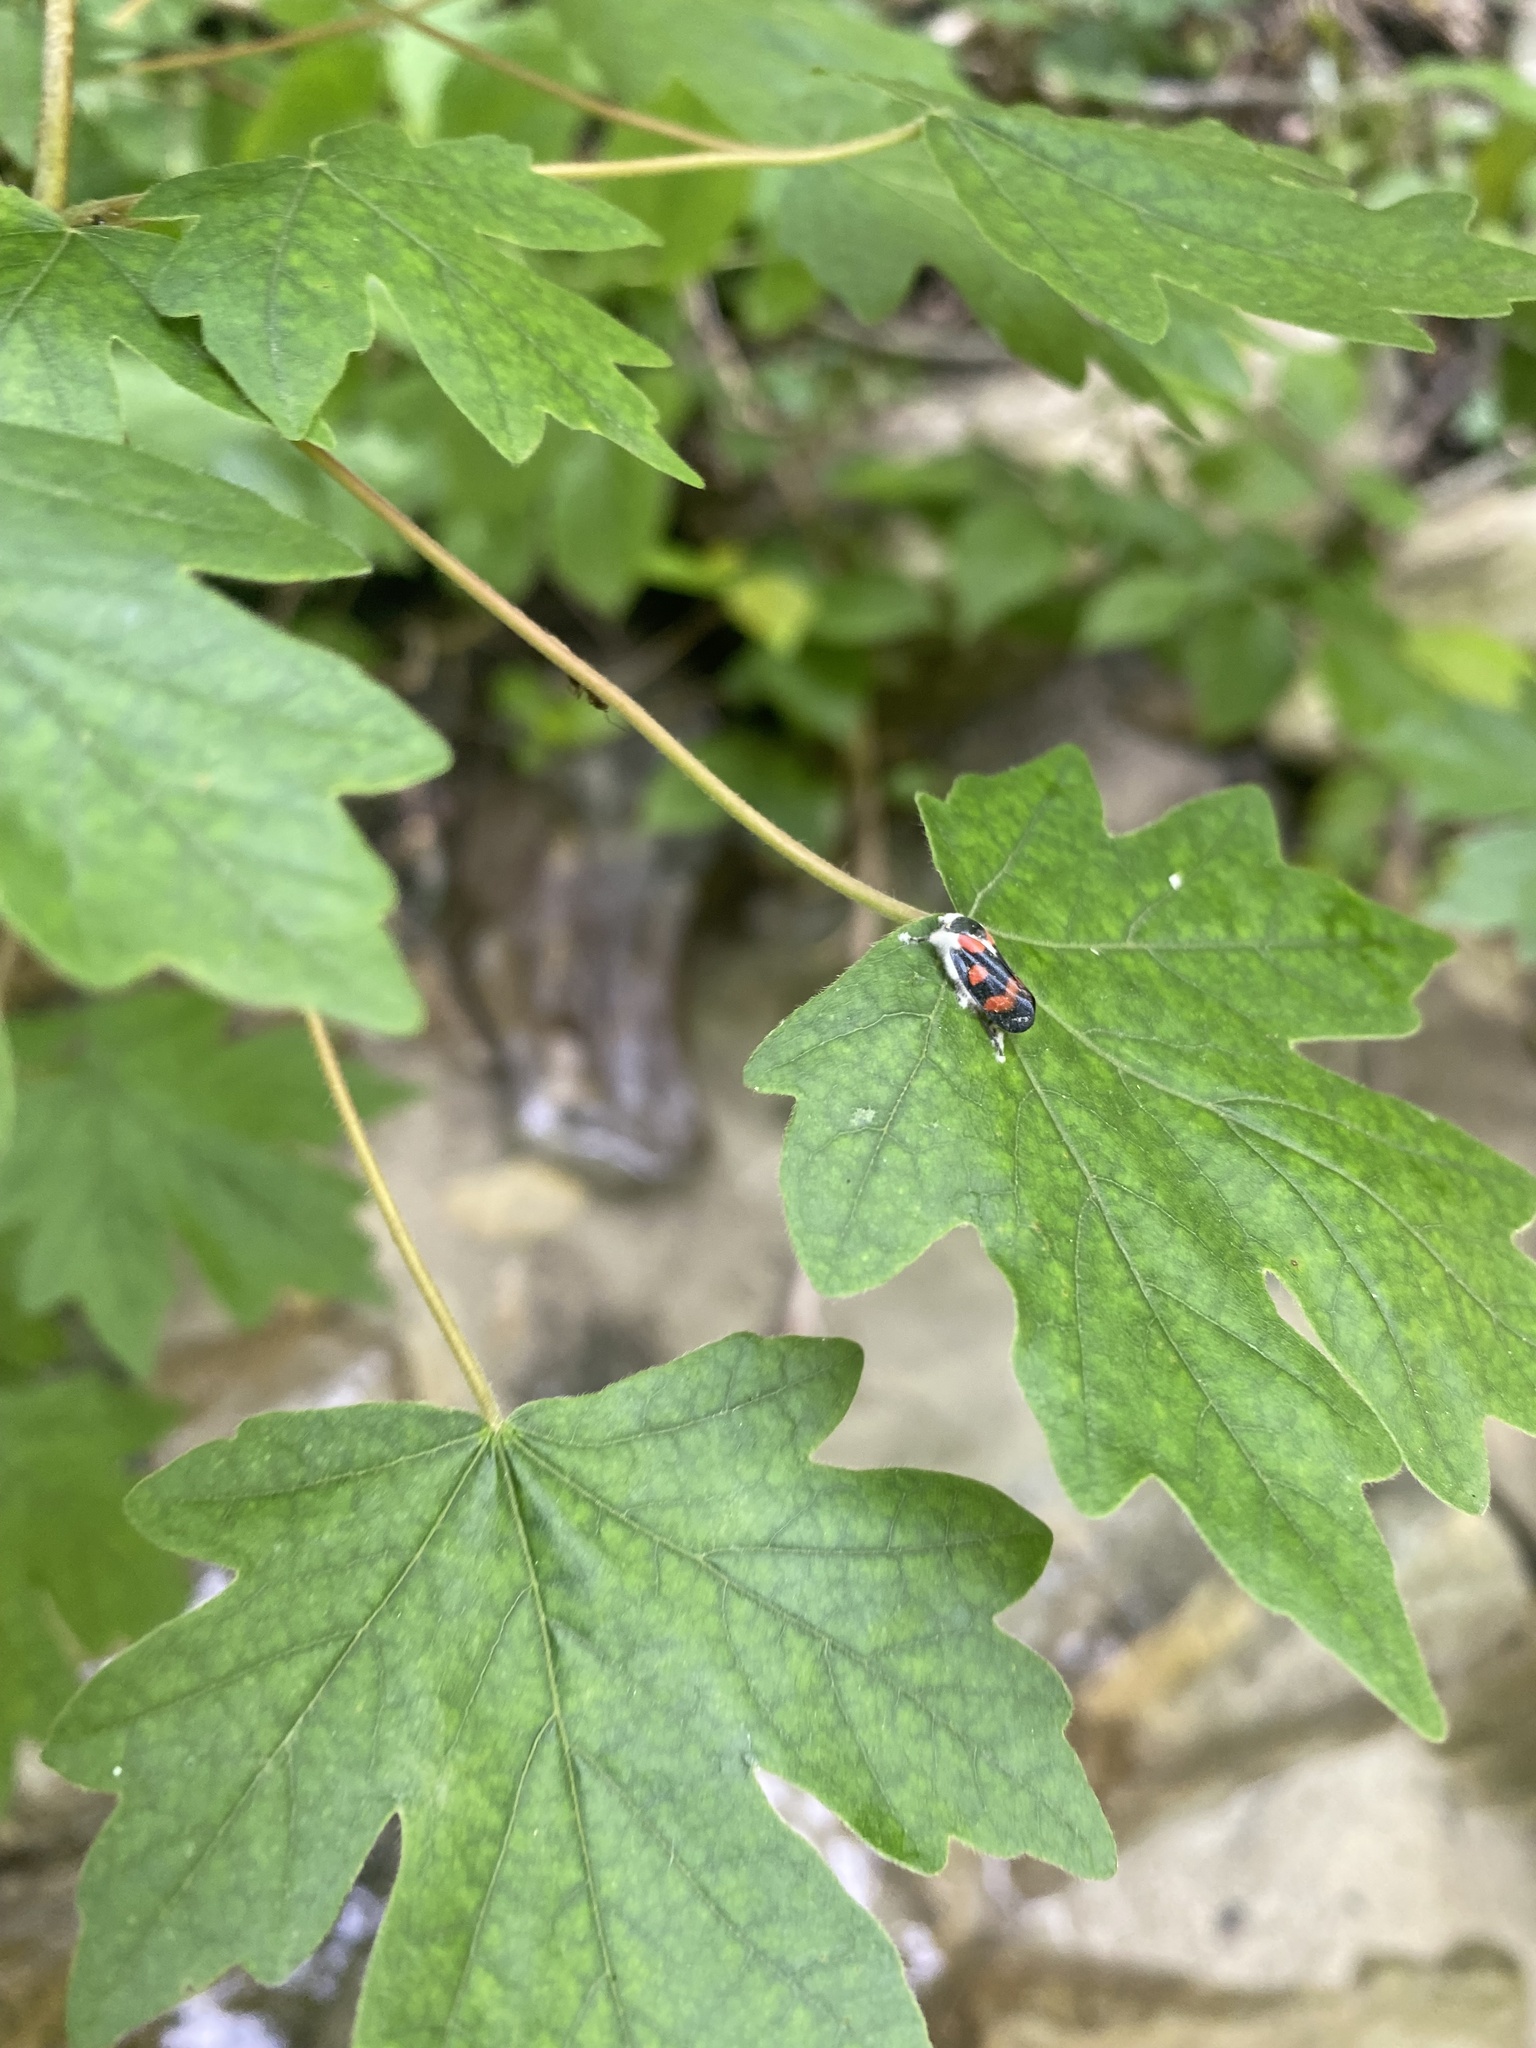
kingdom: Plantae
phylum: Tracheophyta
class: Magnoliopsida
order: Sapindales
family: Sapindaceae
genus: Acer
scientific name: Acer campestre
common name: Field maple
